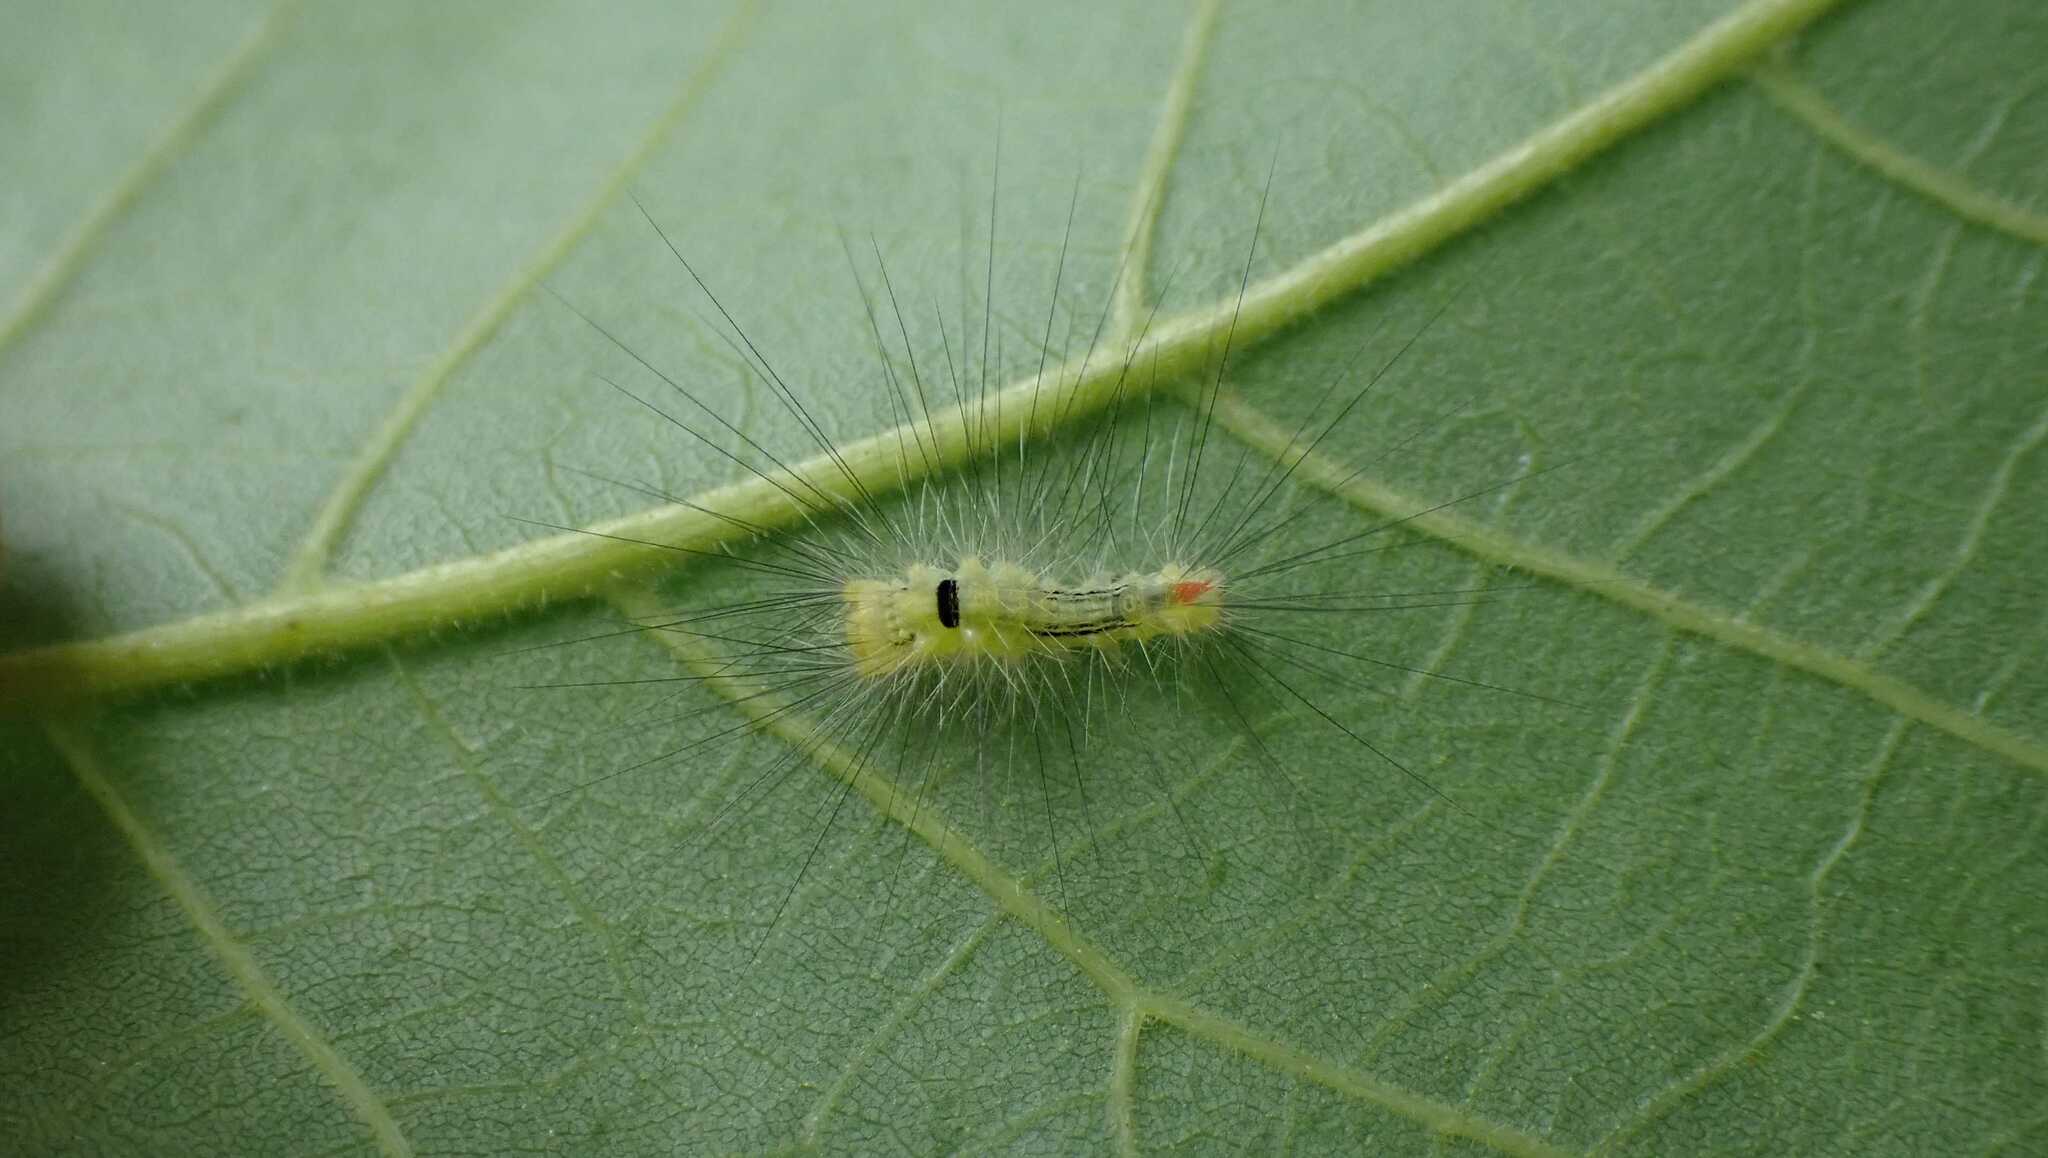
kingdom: Animalia
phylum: Arthropoda
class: Insecta
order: Lepidoptera
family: Erebidae
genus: Calliteara
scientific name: Calliteara pudibunda
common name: Pale tussock
